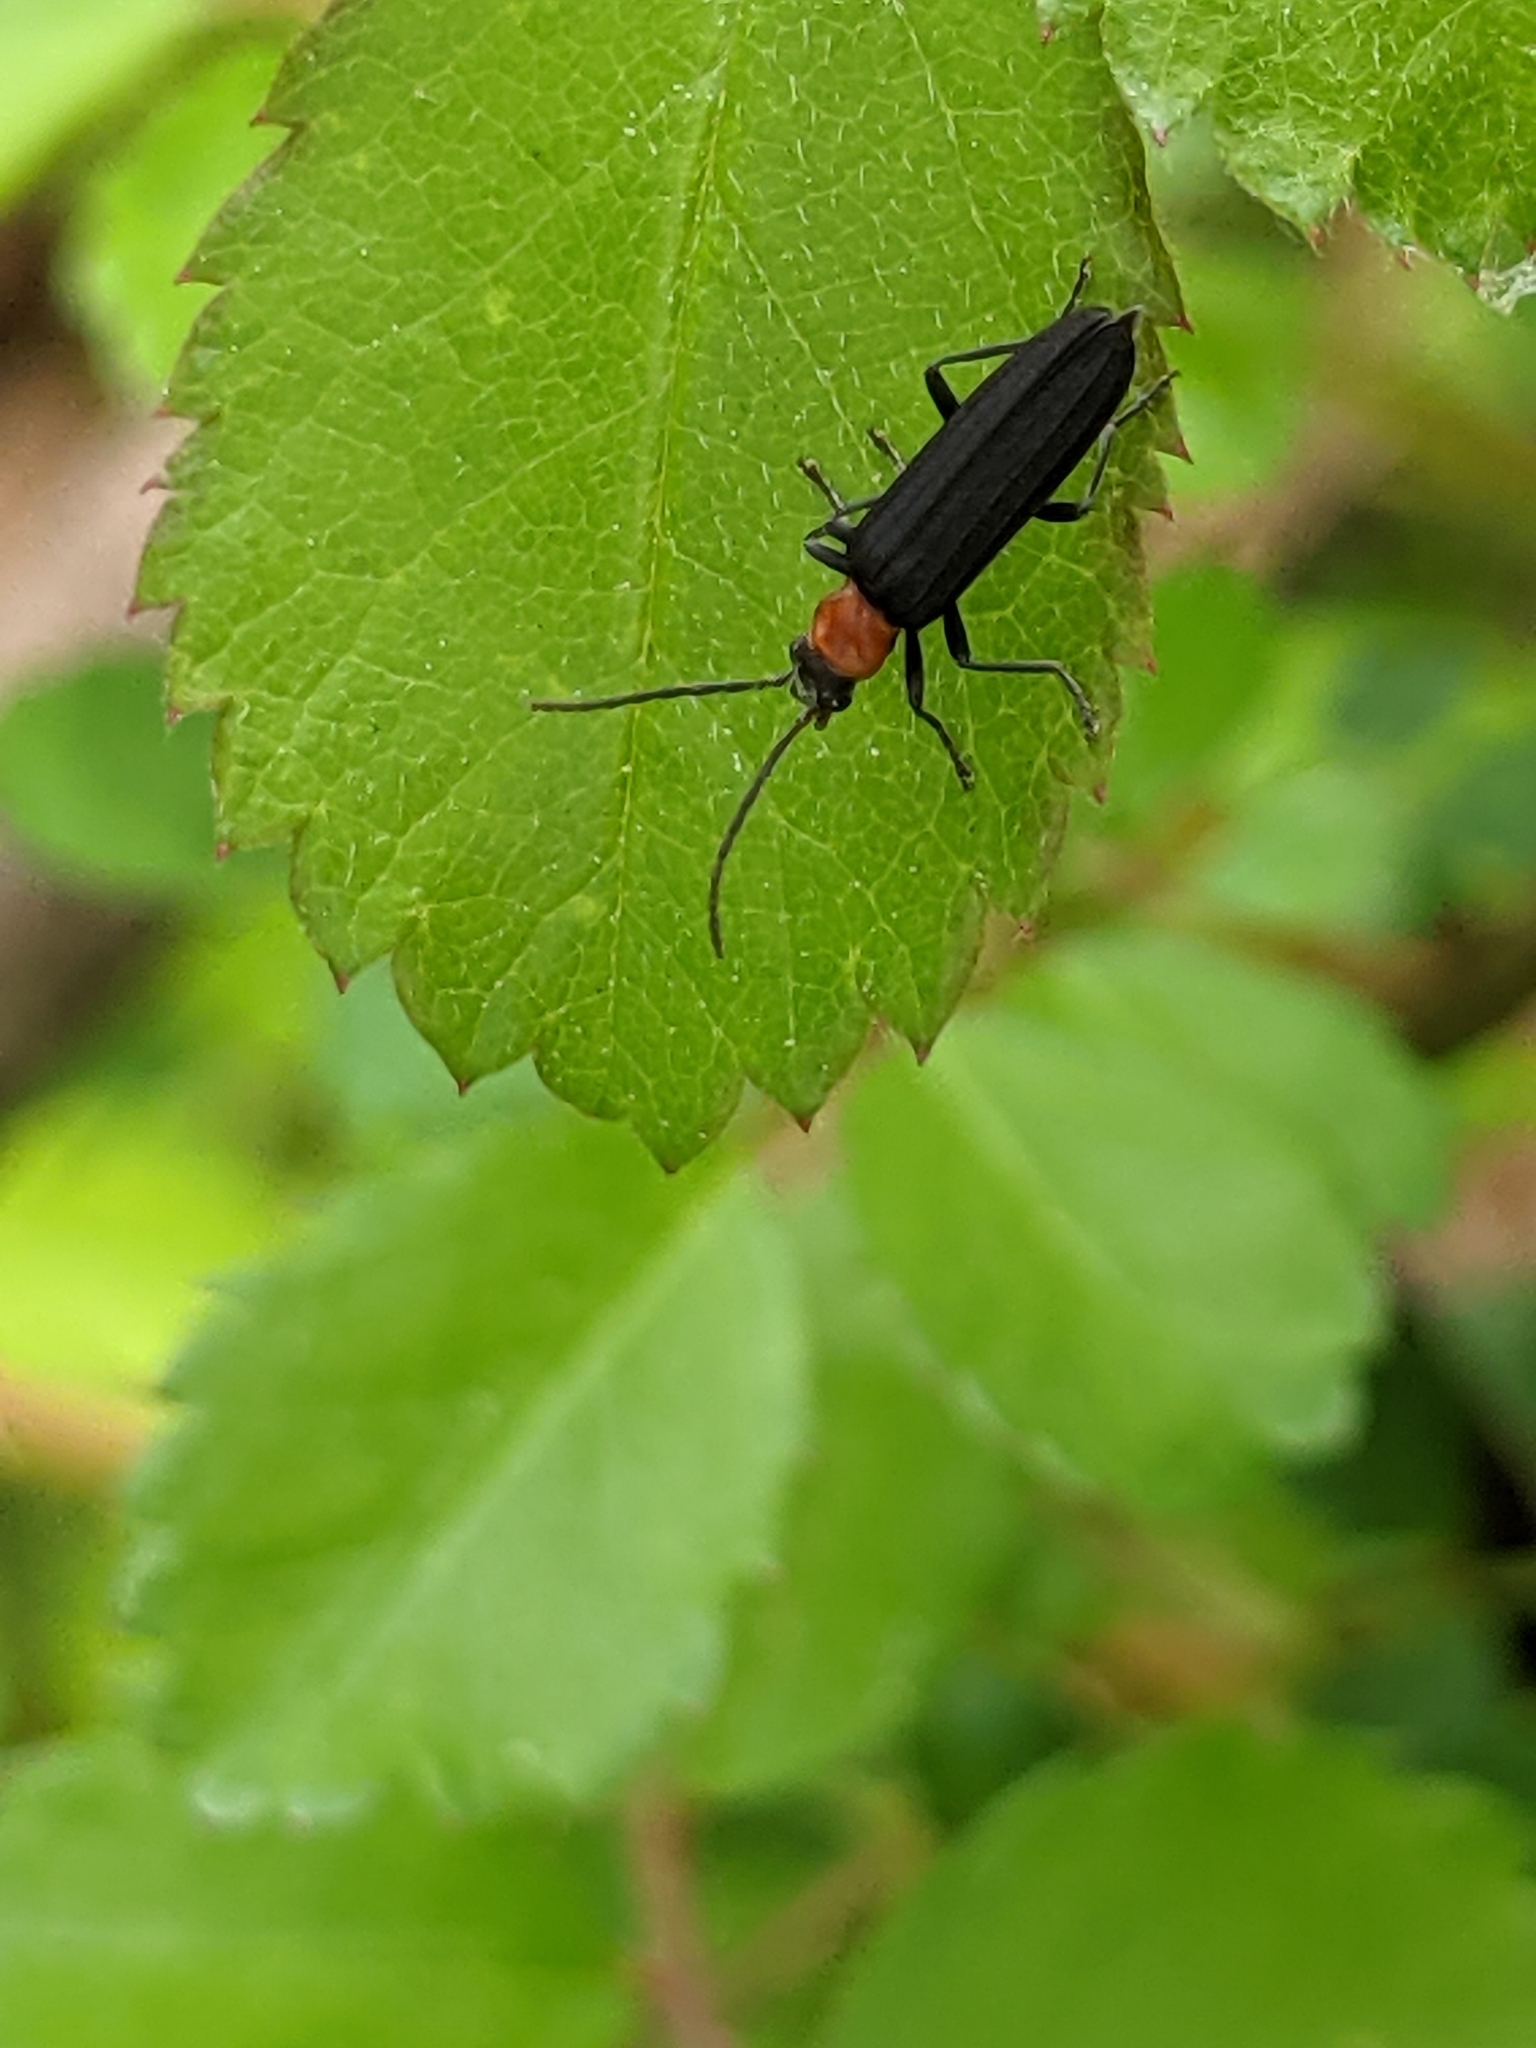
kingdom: Animalia
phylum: Arthropoda
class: Insecta
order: Coleoptera
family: Oedemeridae
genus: Ischnomera
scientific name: Ischnomera
